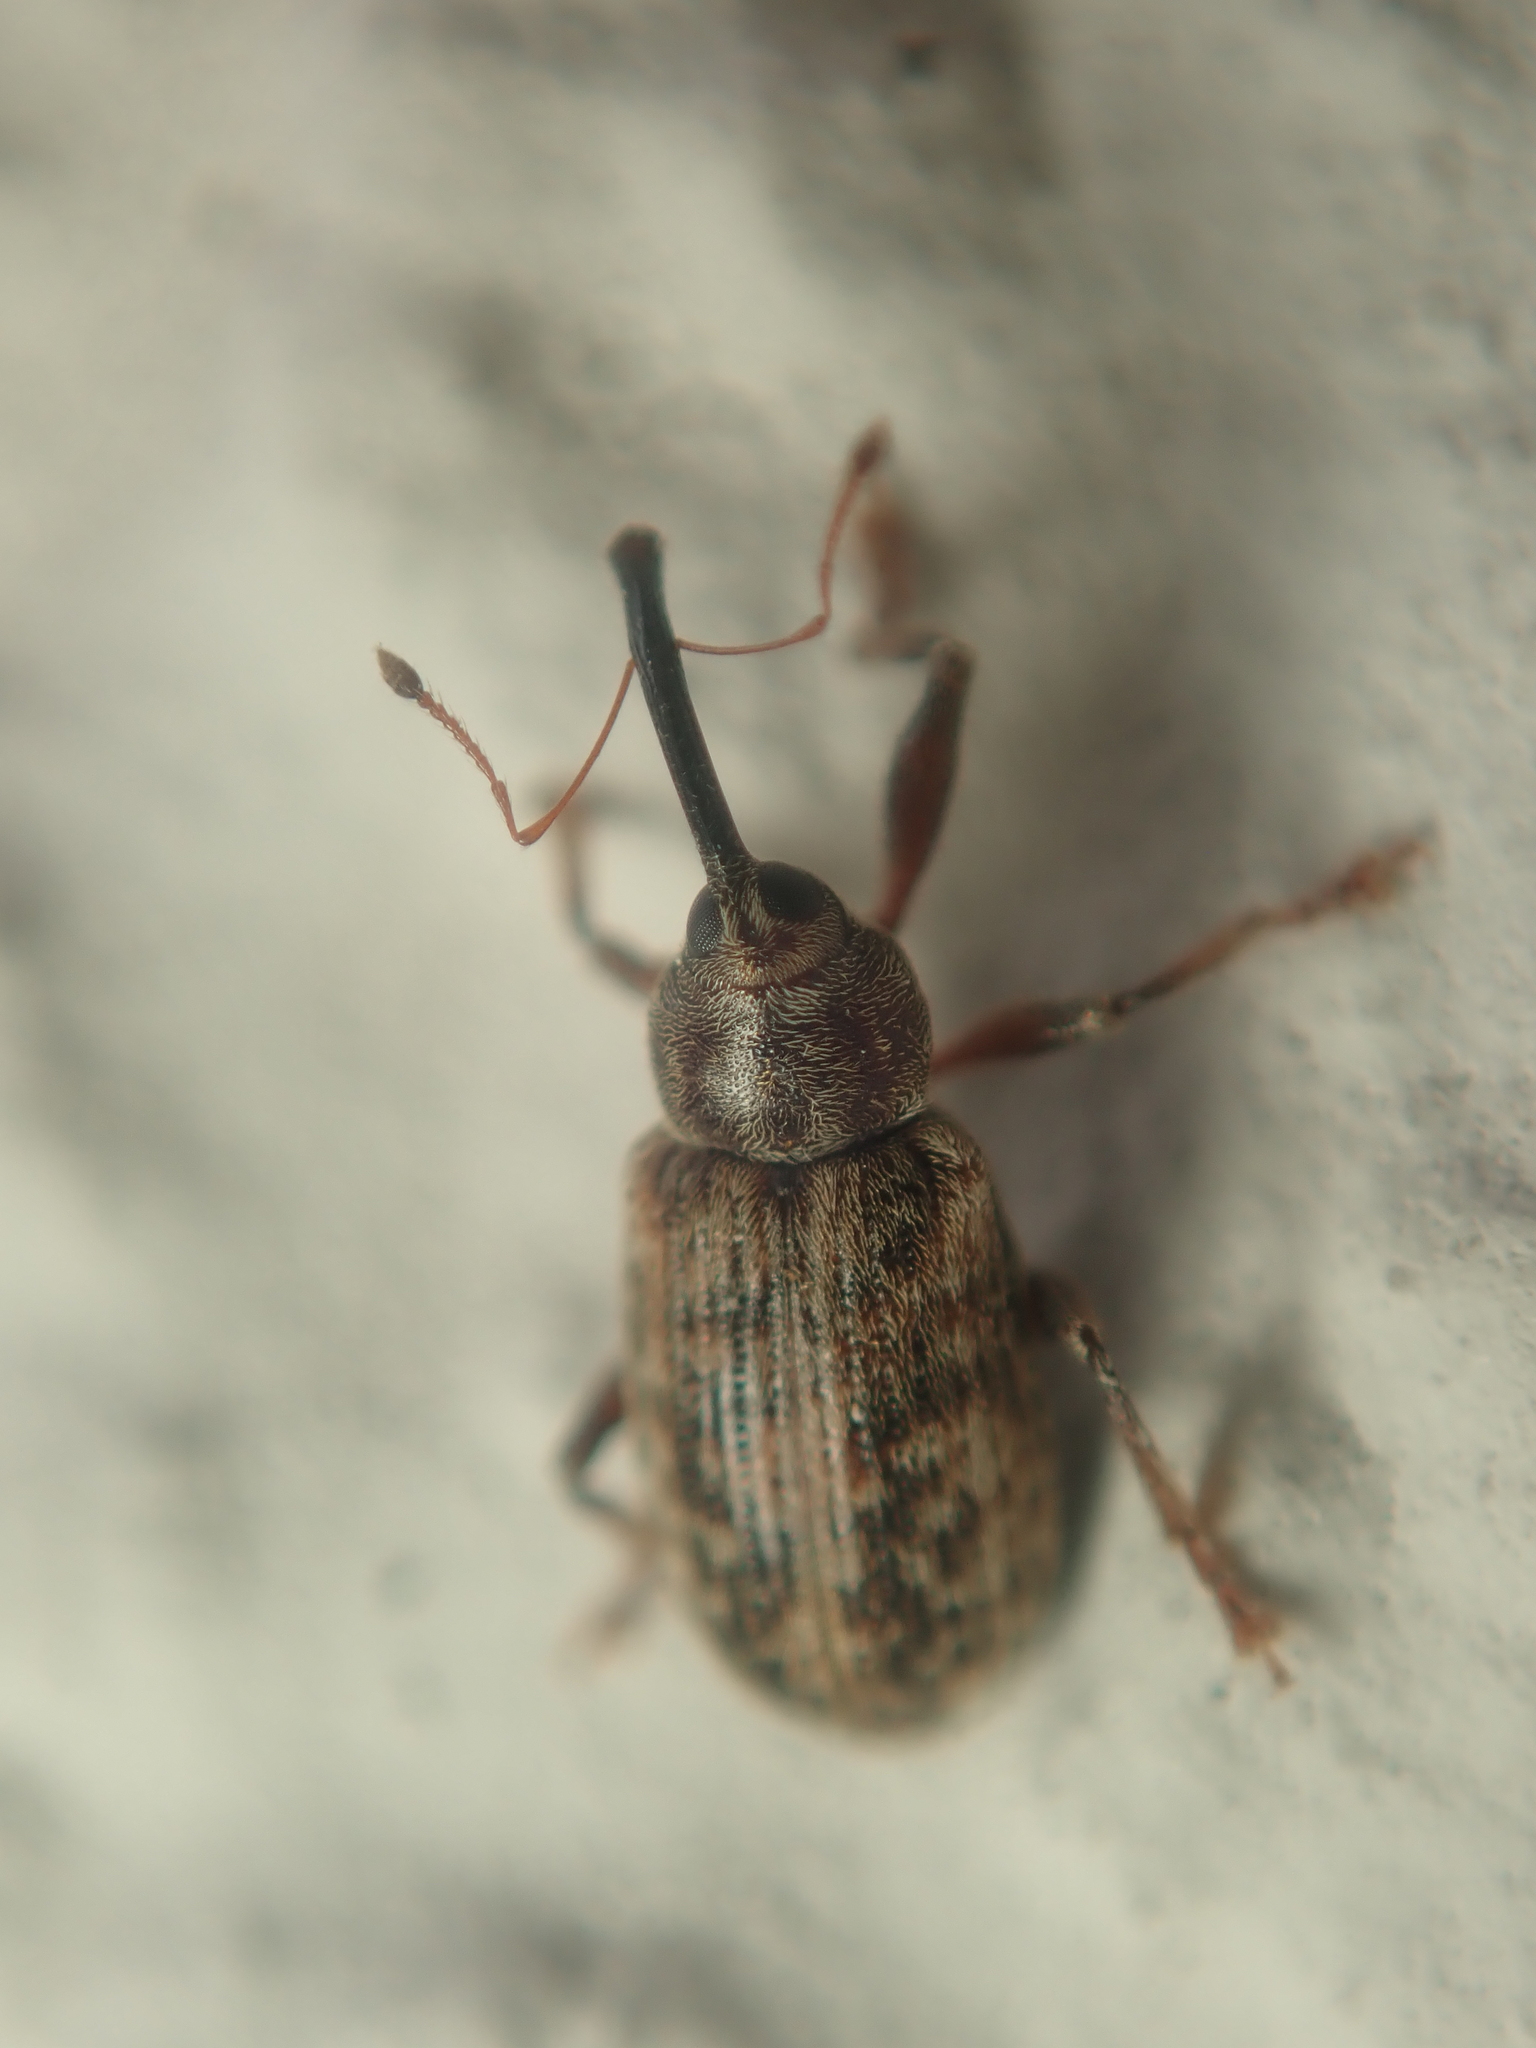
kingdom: Animalia
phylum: Arthropoda
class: Insecta
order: Coleoptera
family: Curculionidae
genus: Dorytomus
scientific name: Dorytomus longimanus
